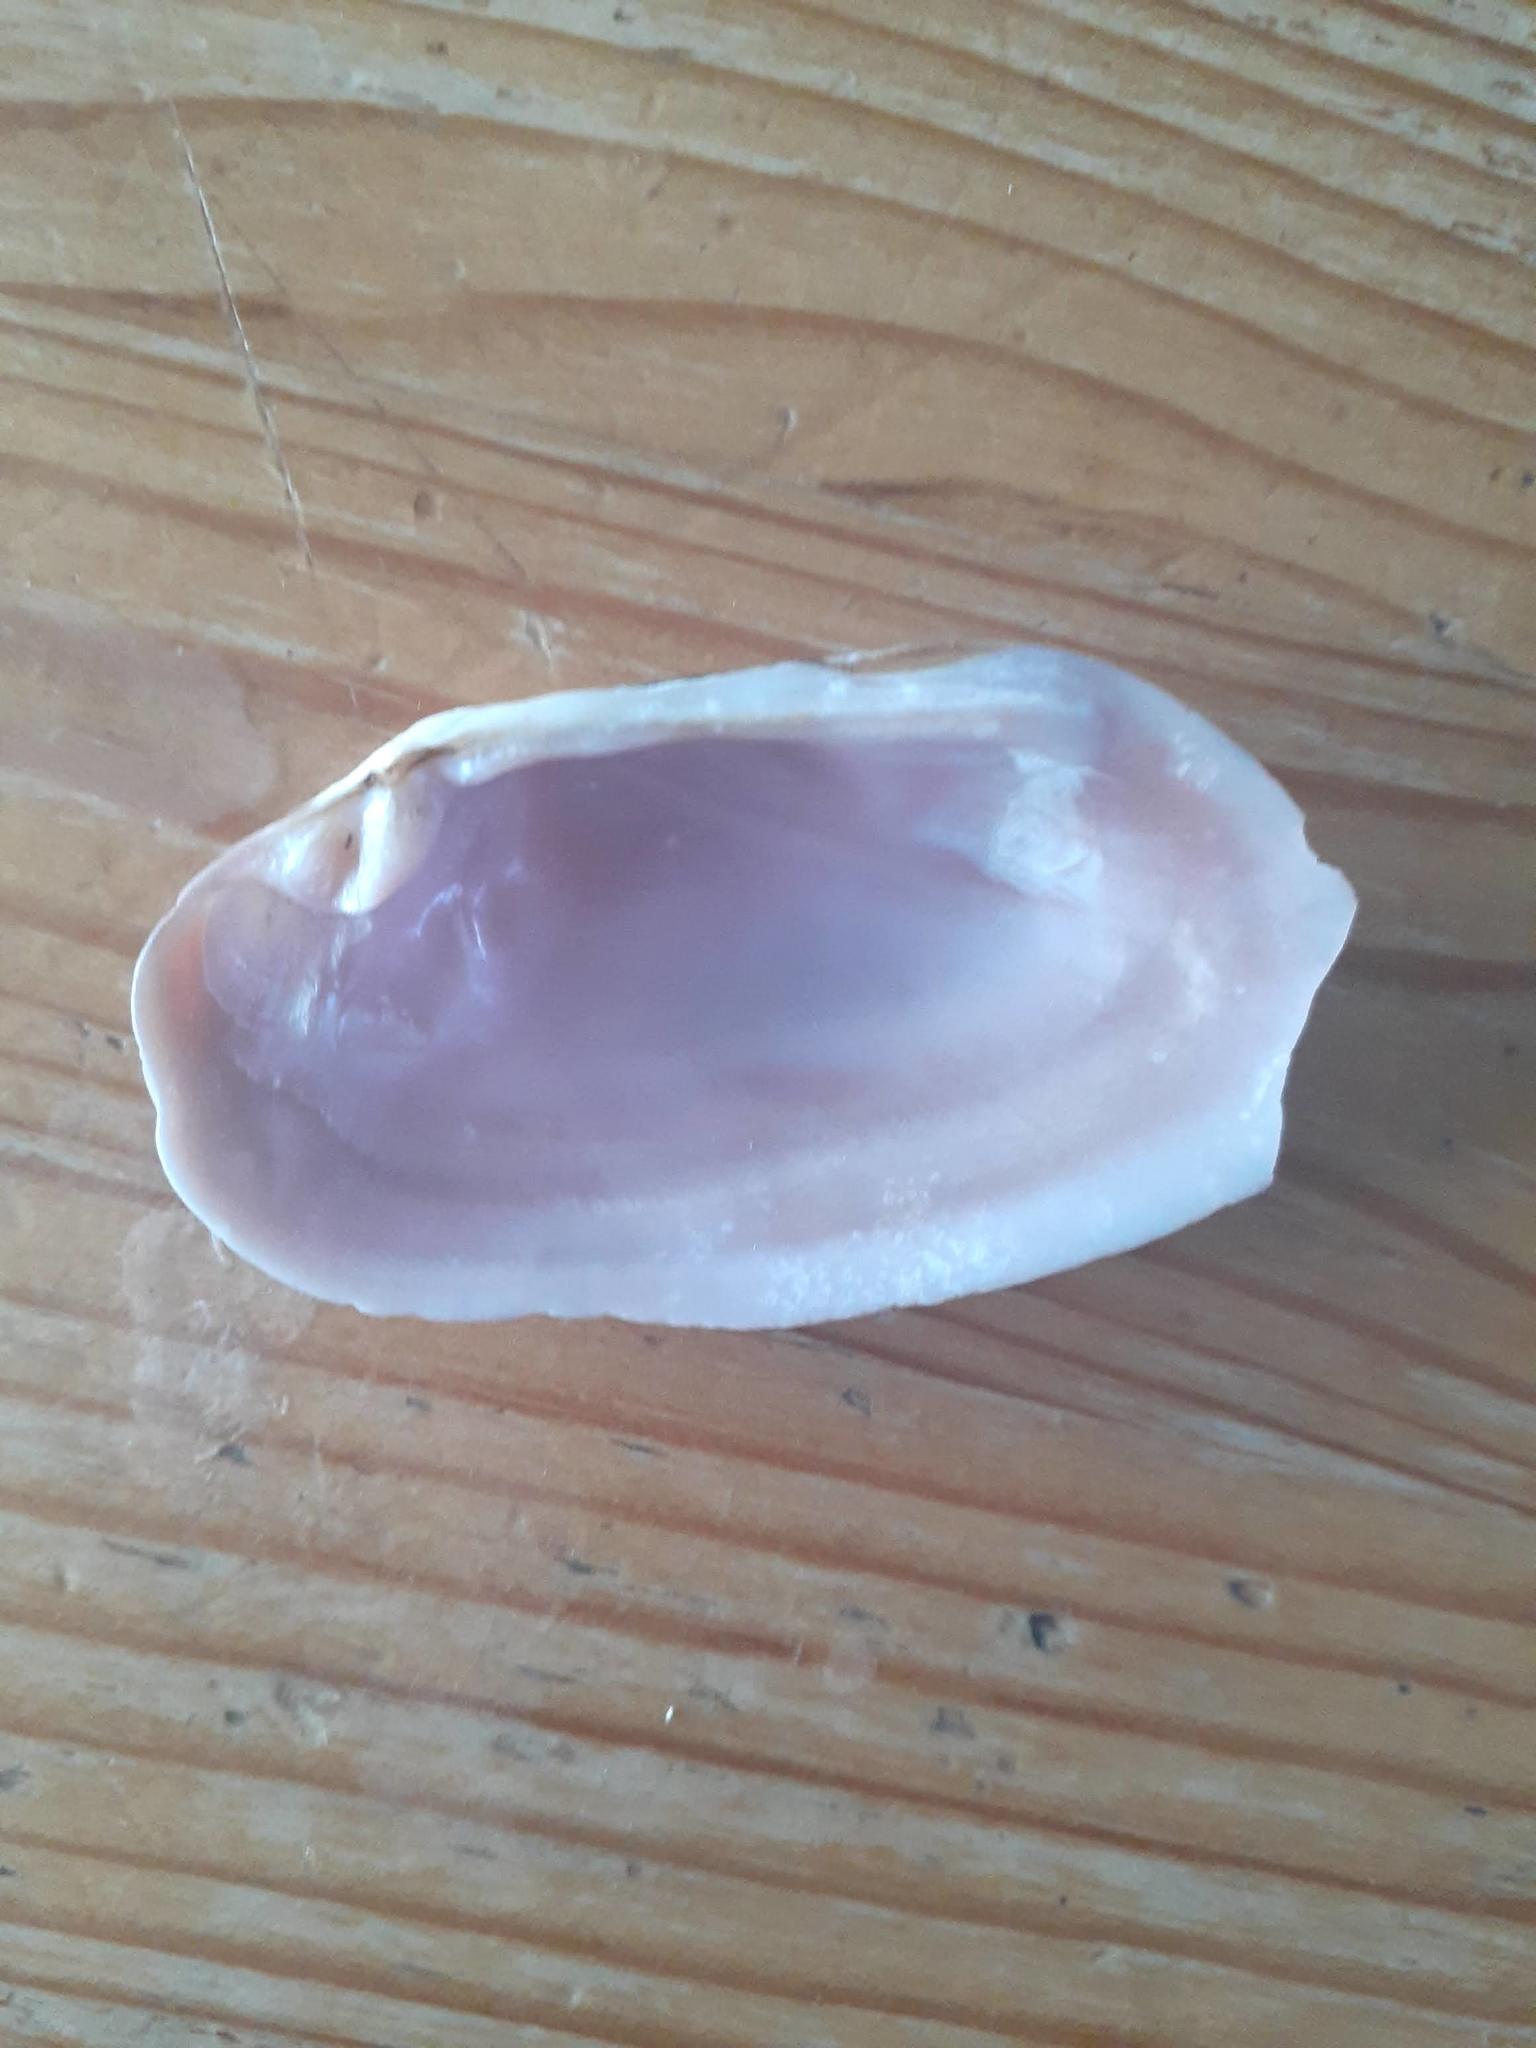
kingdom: Animalia
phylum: Mollusca
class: Bivalvia
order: Unionida
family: Unionidae
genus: Elliptio
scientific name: Elliptio complanata
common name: Eastern elliptio
